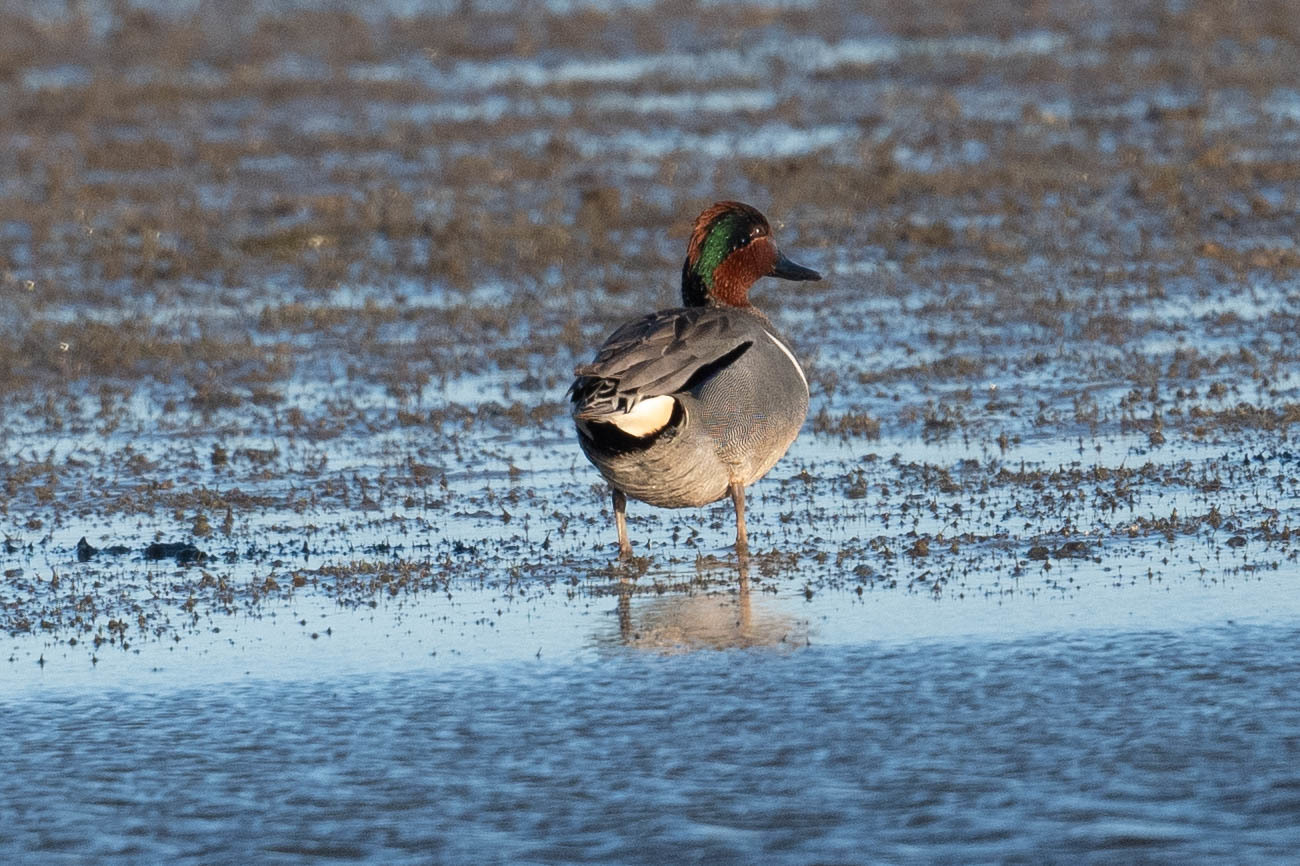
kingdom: Animalia
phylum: Chordata
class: Aves
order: Anseriformes
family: Anatidae
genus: Anas
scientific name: Anas crecca
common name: Eurasian teal
